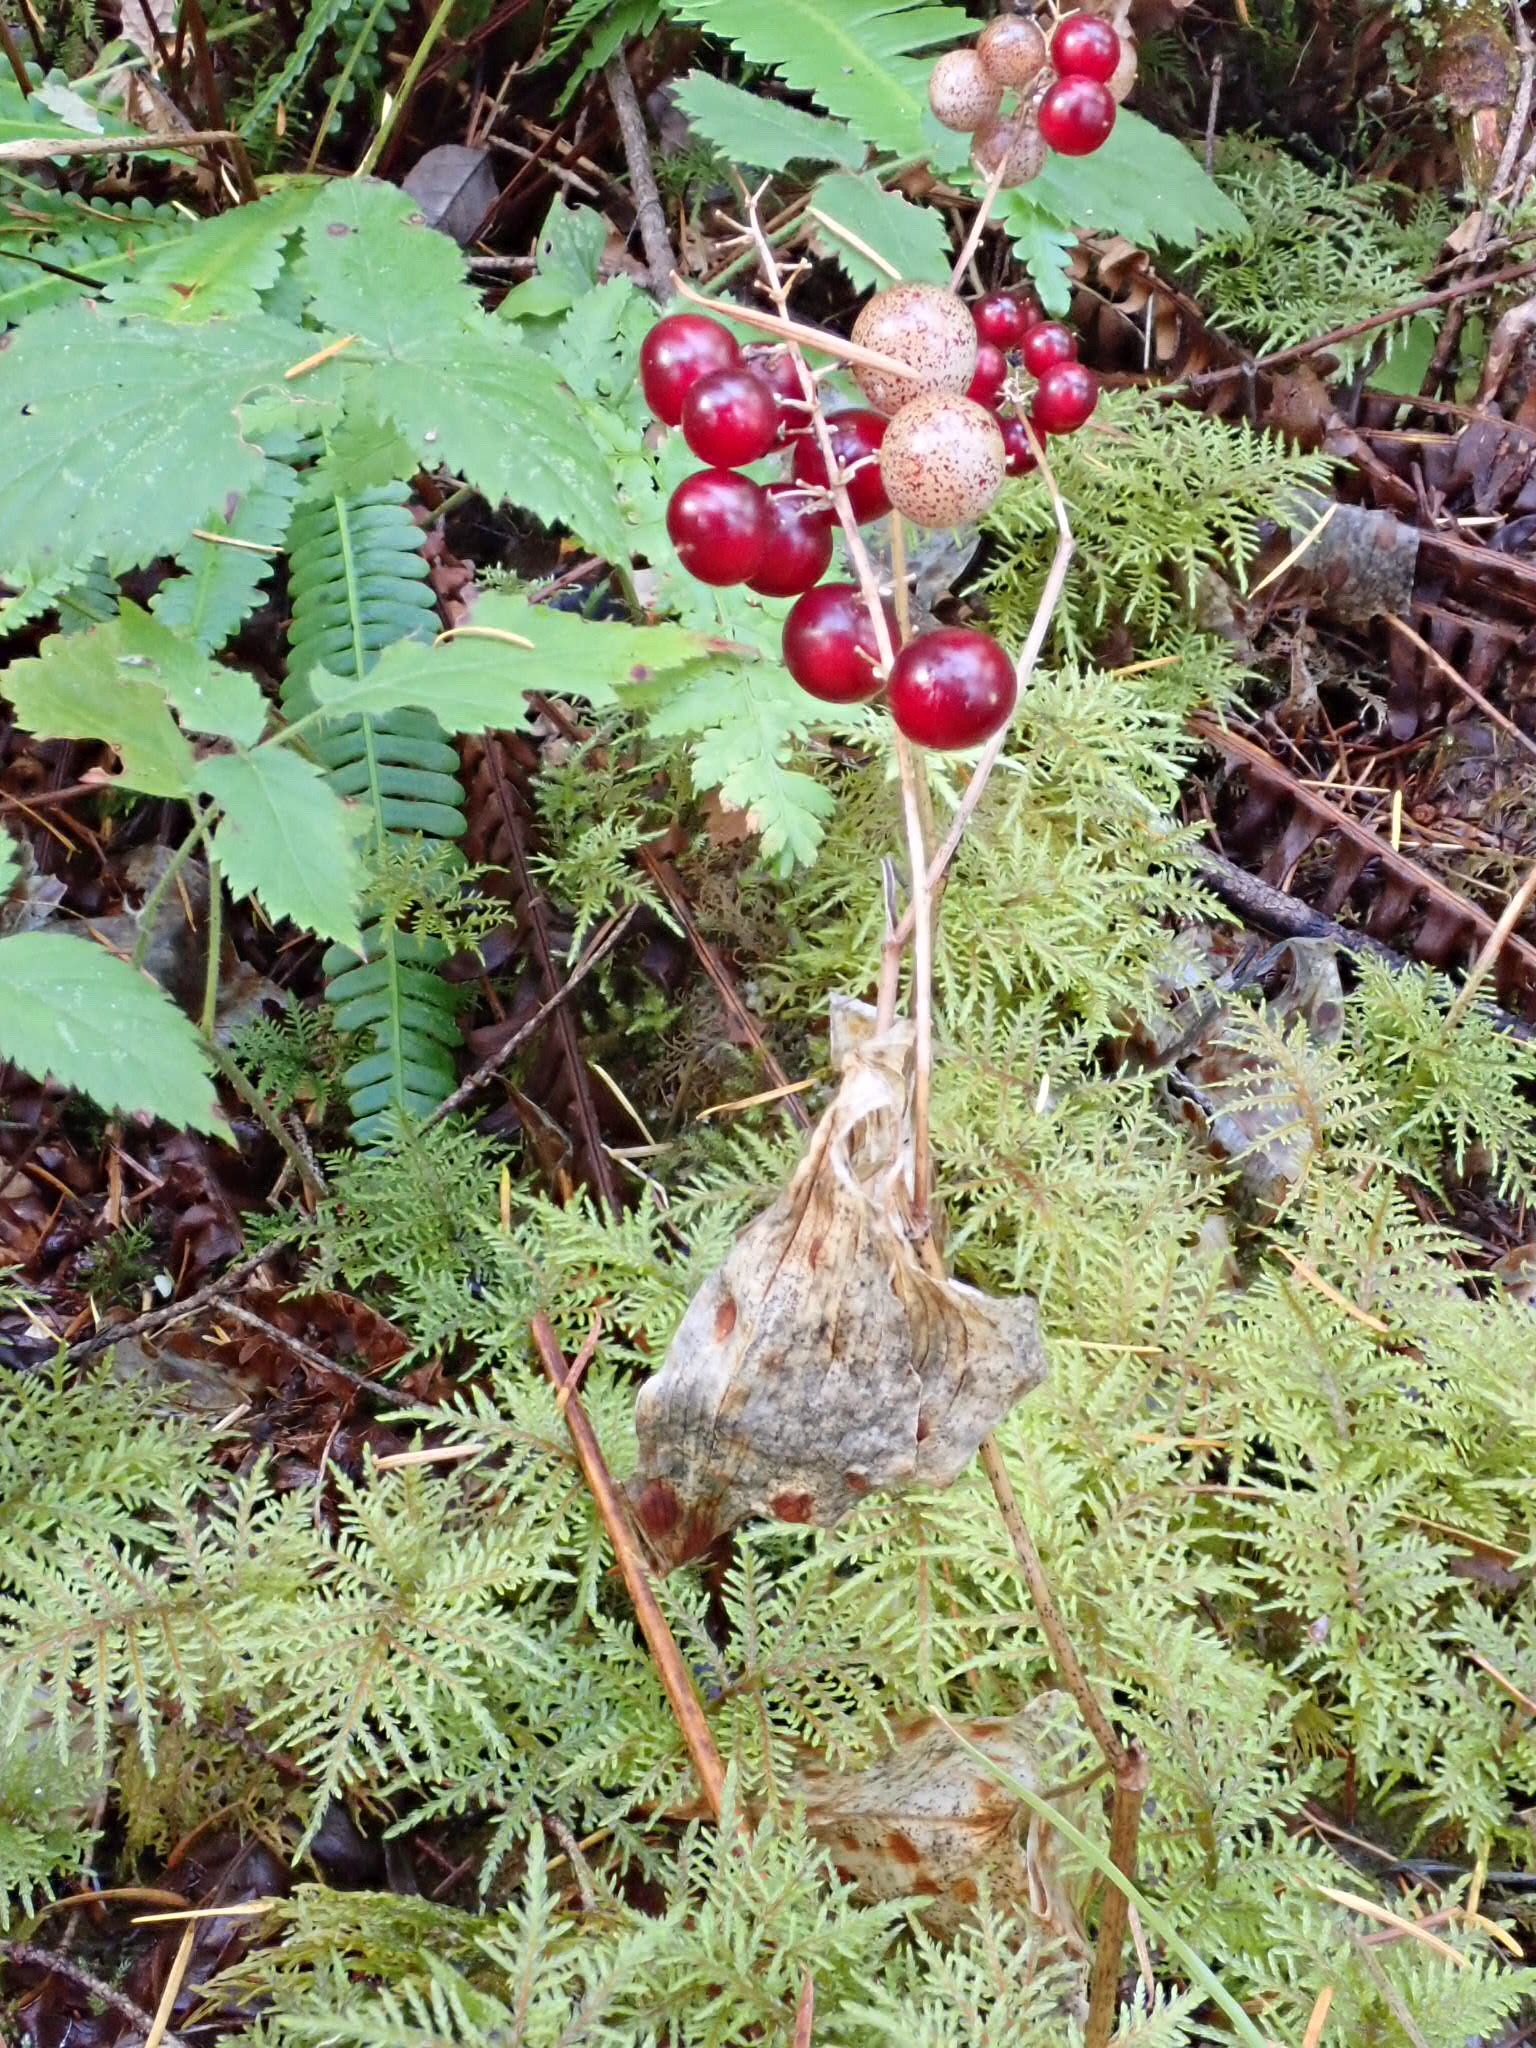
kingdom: Plantae
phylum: Tracheophyta
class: Liliopsida
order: Asparagales
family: Asparagaceae
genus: Maianthemum
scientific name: Maianthemum dilatatum
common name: False lily-of-the-valley
